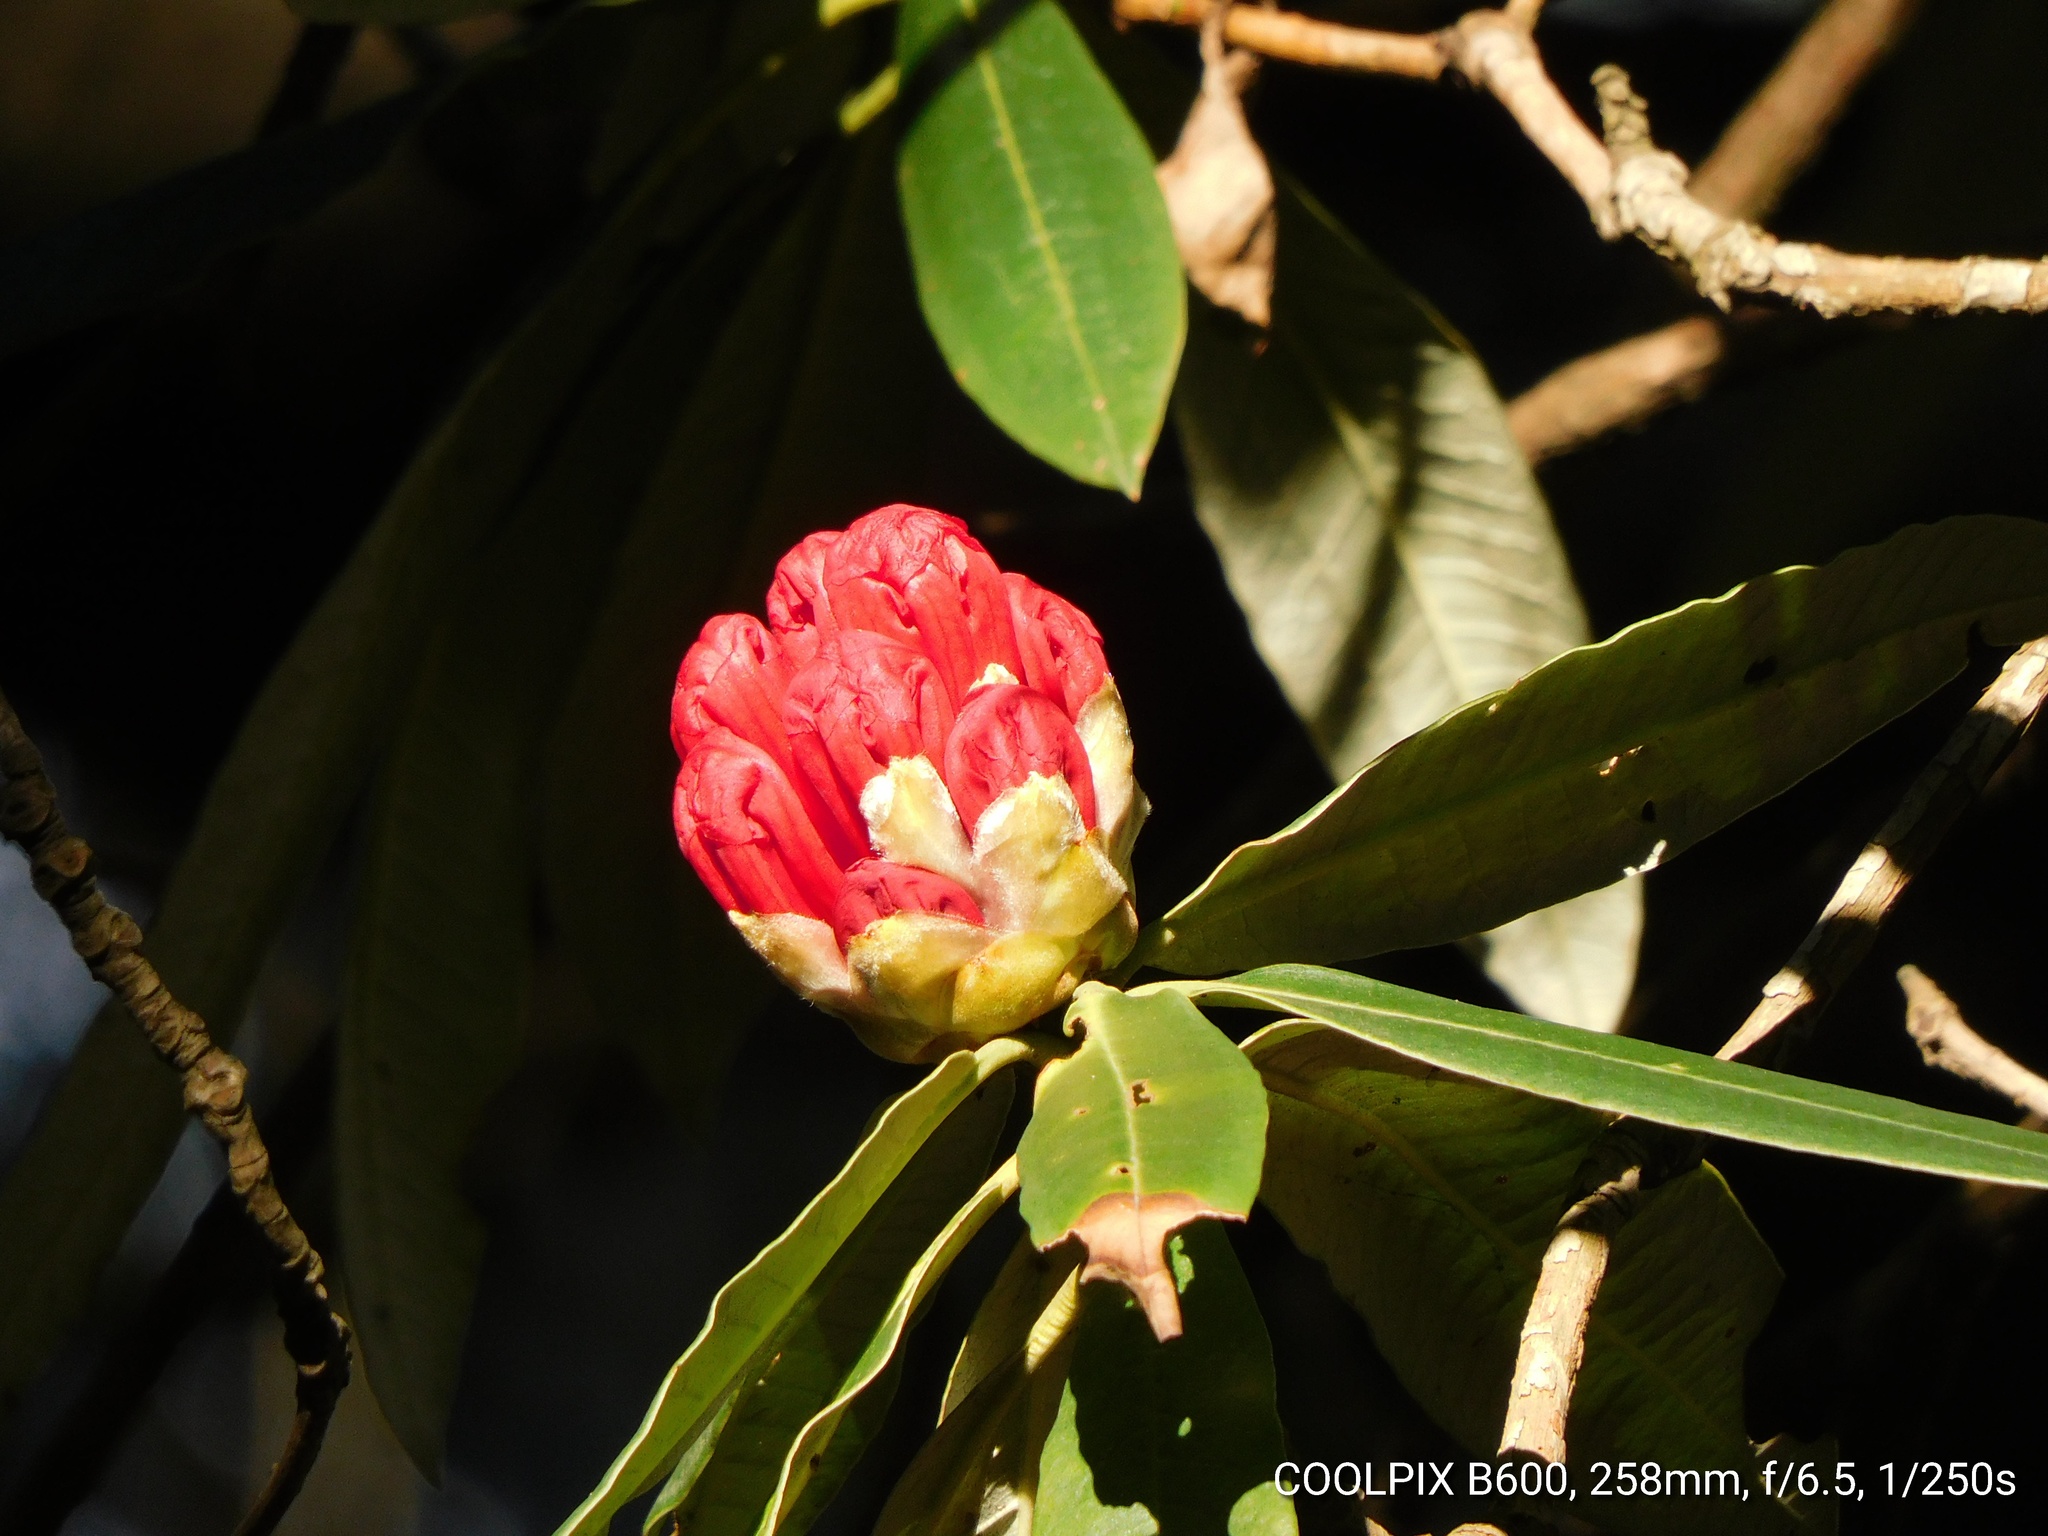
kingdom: Plantae
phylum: Tracheophyta
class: Magnoliopsida
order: Ericales
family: Ericaceae
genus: Rhododendron
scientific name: Rhododendron arboreum
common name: Tree rhododendron
